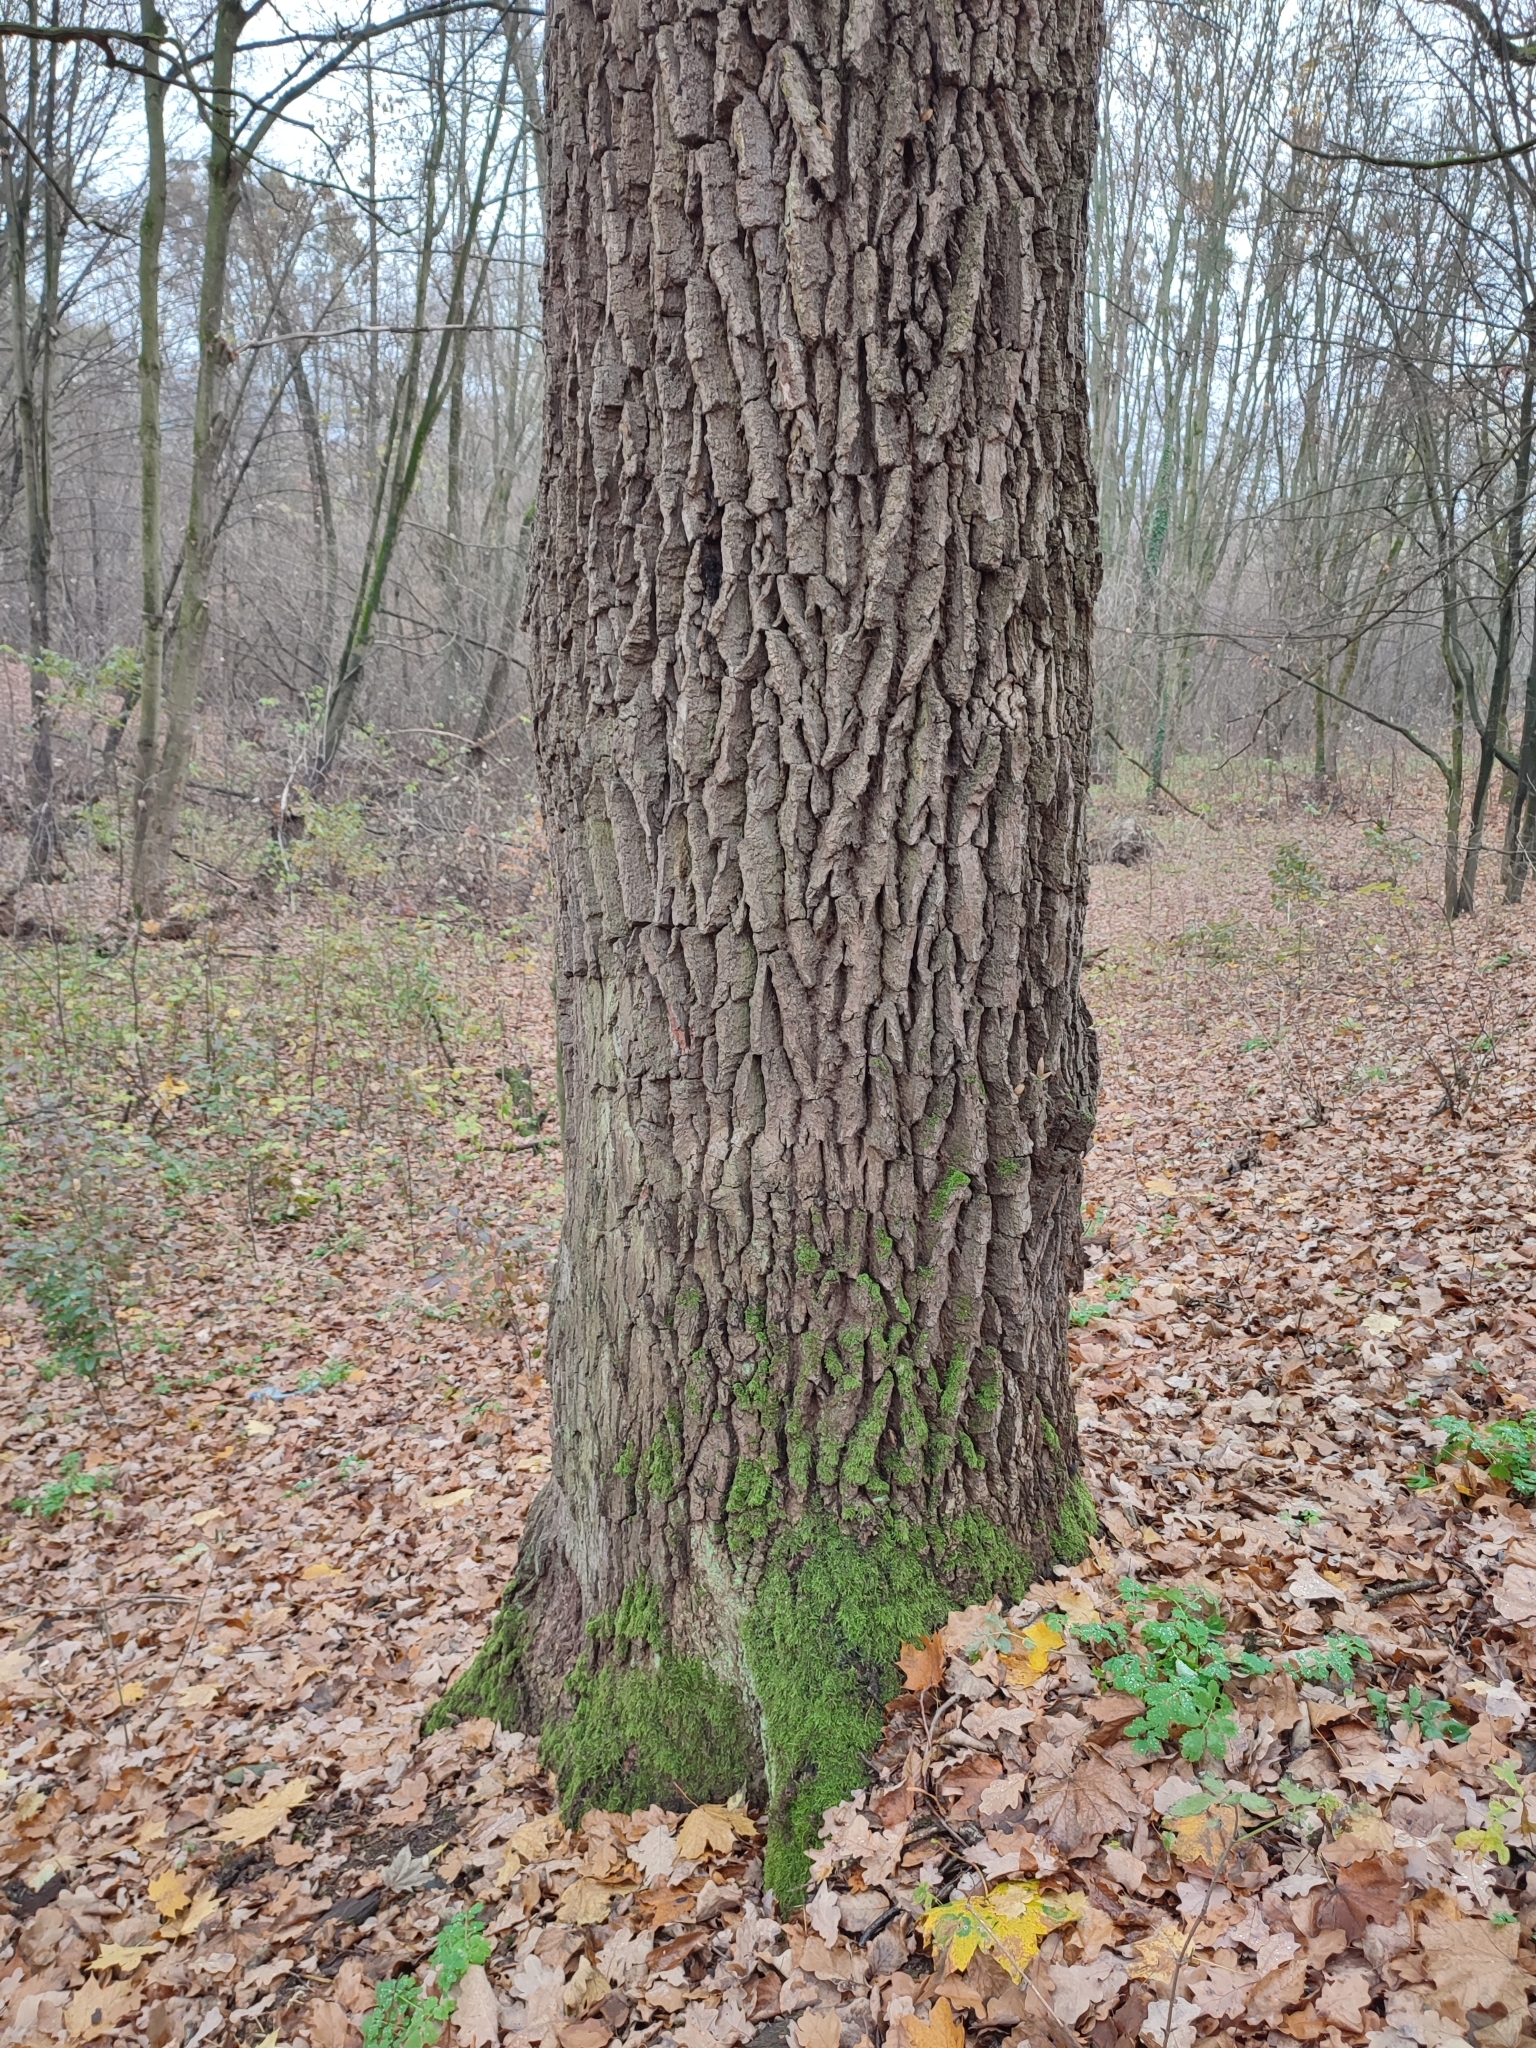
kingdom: Plantae
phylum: Tracheophyta
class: Magnoliopsida
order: Fagales
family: Fagaceae
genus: Quercus
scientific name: Quercus robur
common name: Pedunculate oak
